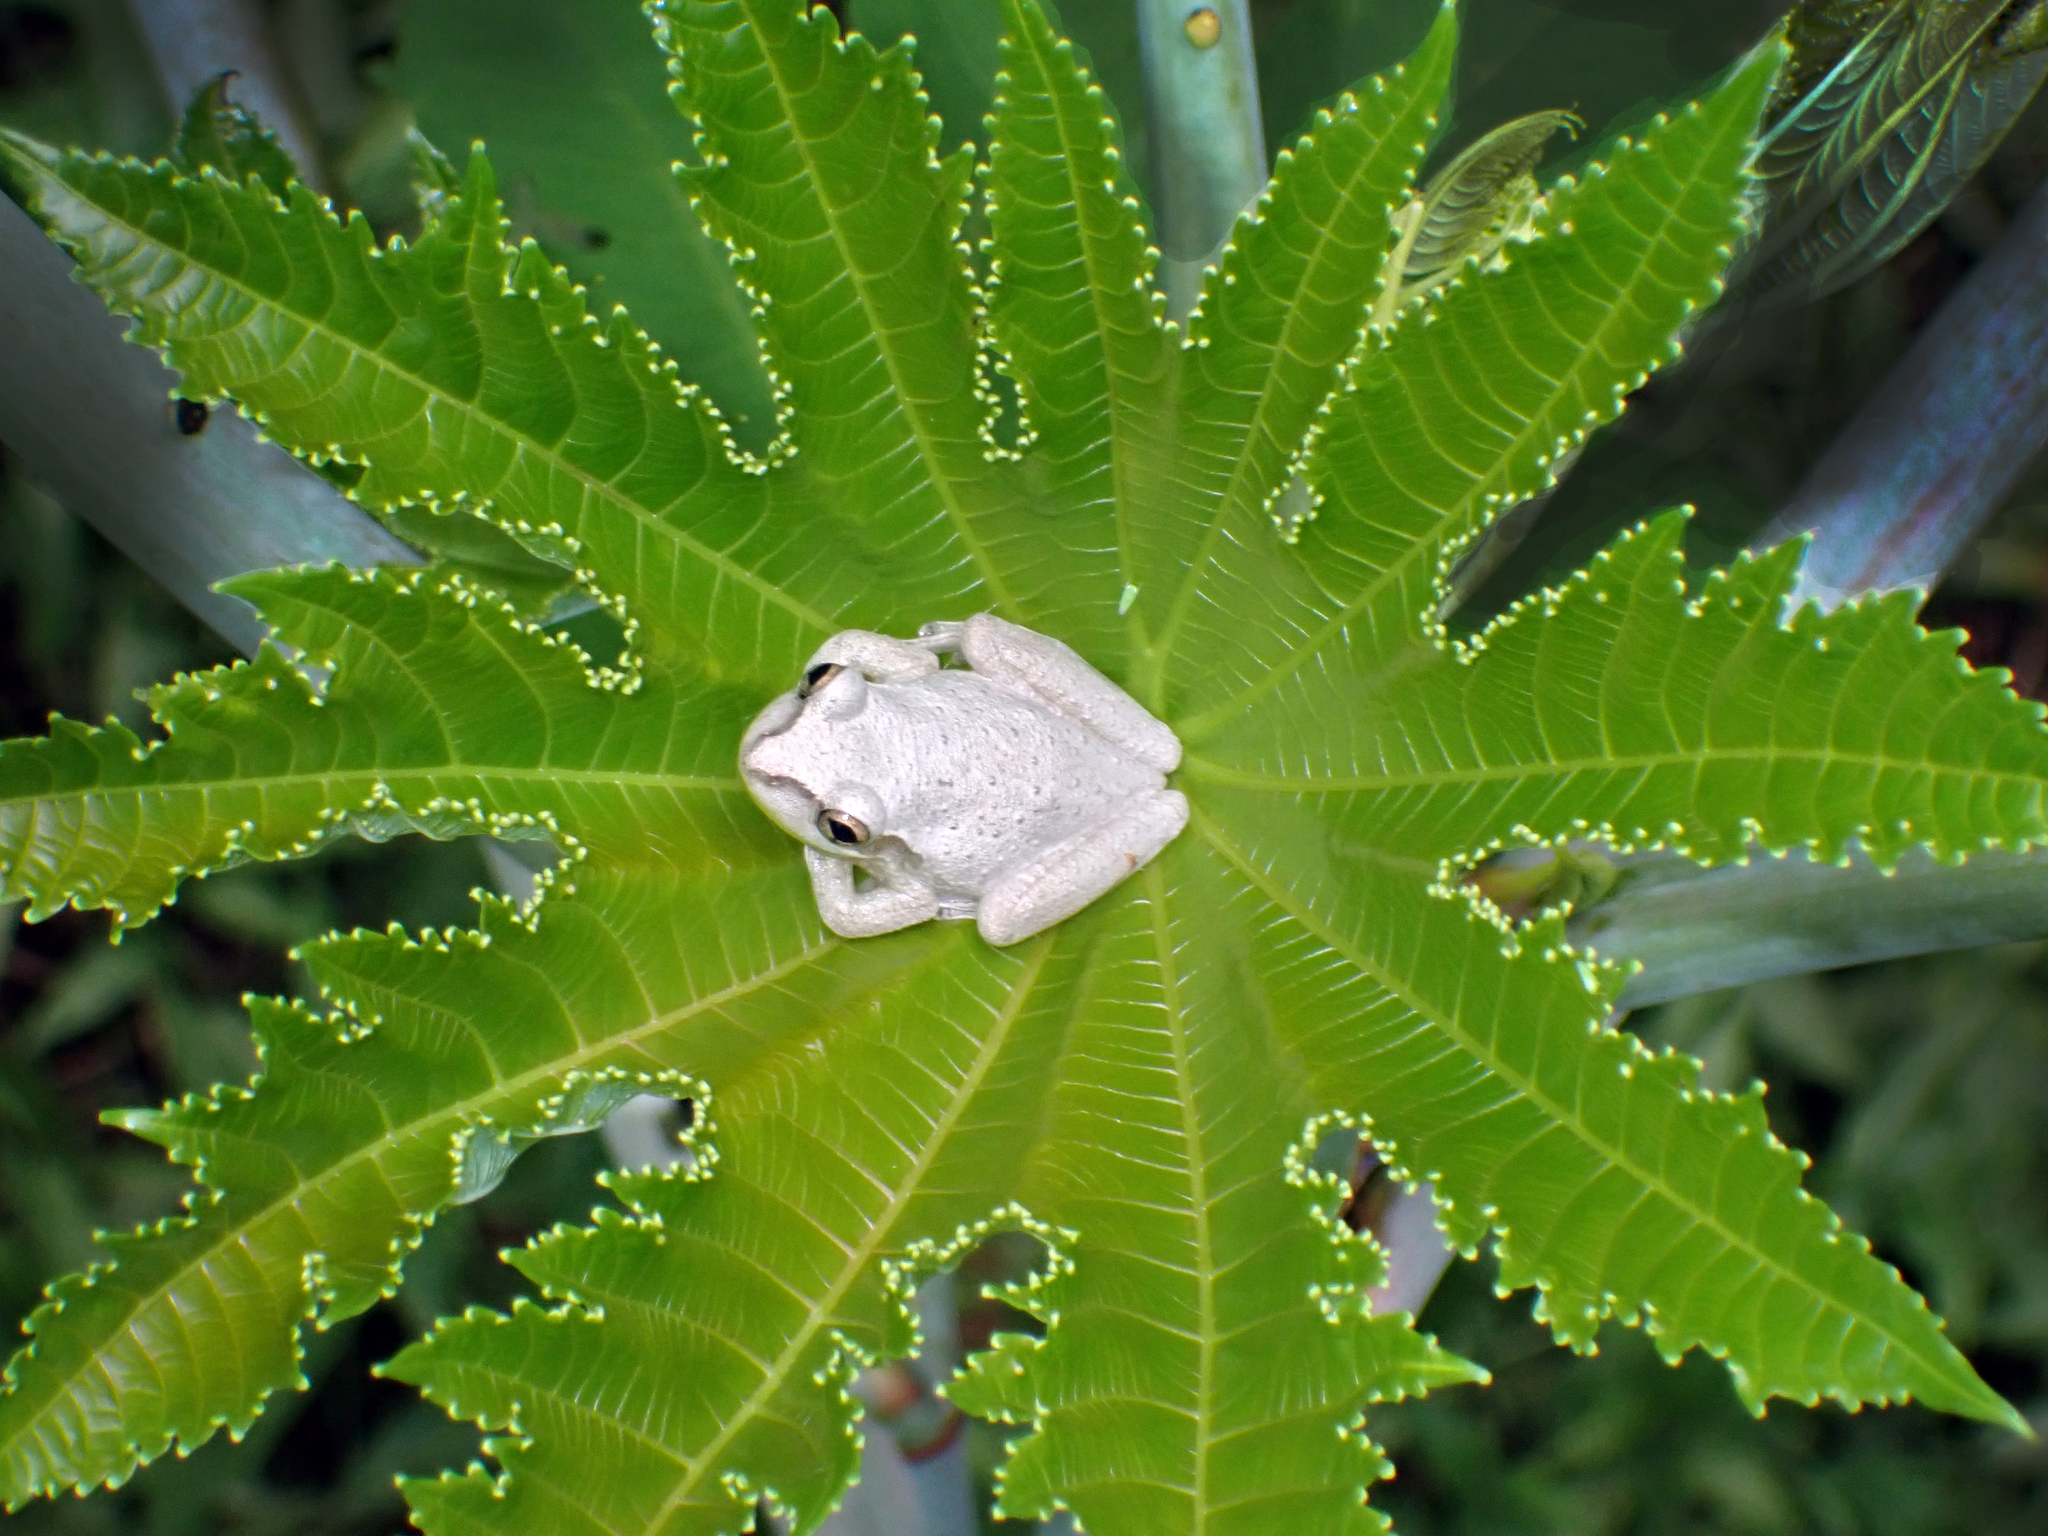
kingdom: Animalia
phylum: Chordata
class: Amphibia
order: Anura
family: Hylidae
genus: Osteopilus
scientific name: Osteopilus septentrionalis
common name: Cuban treefrog
